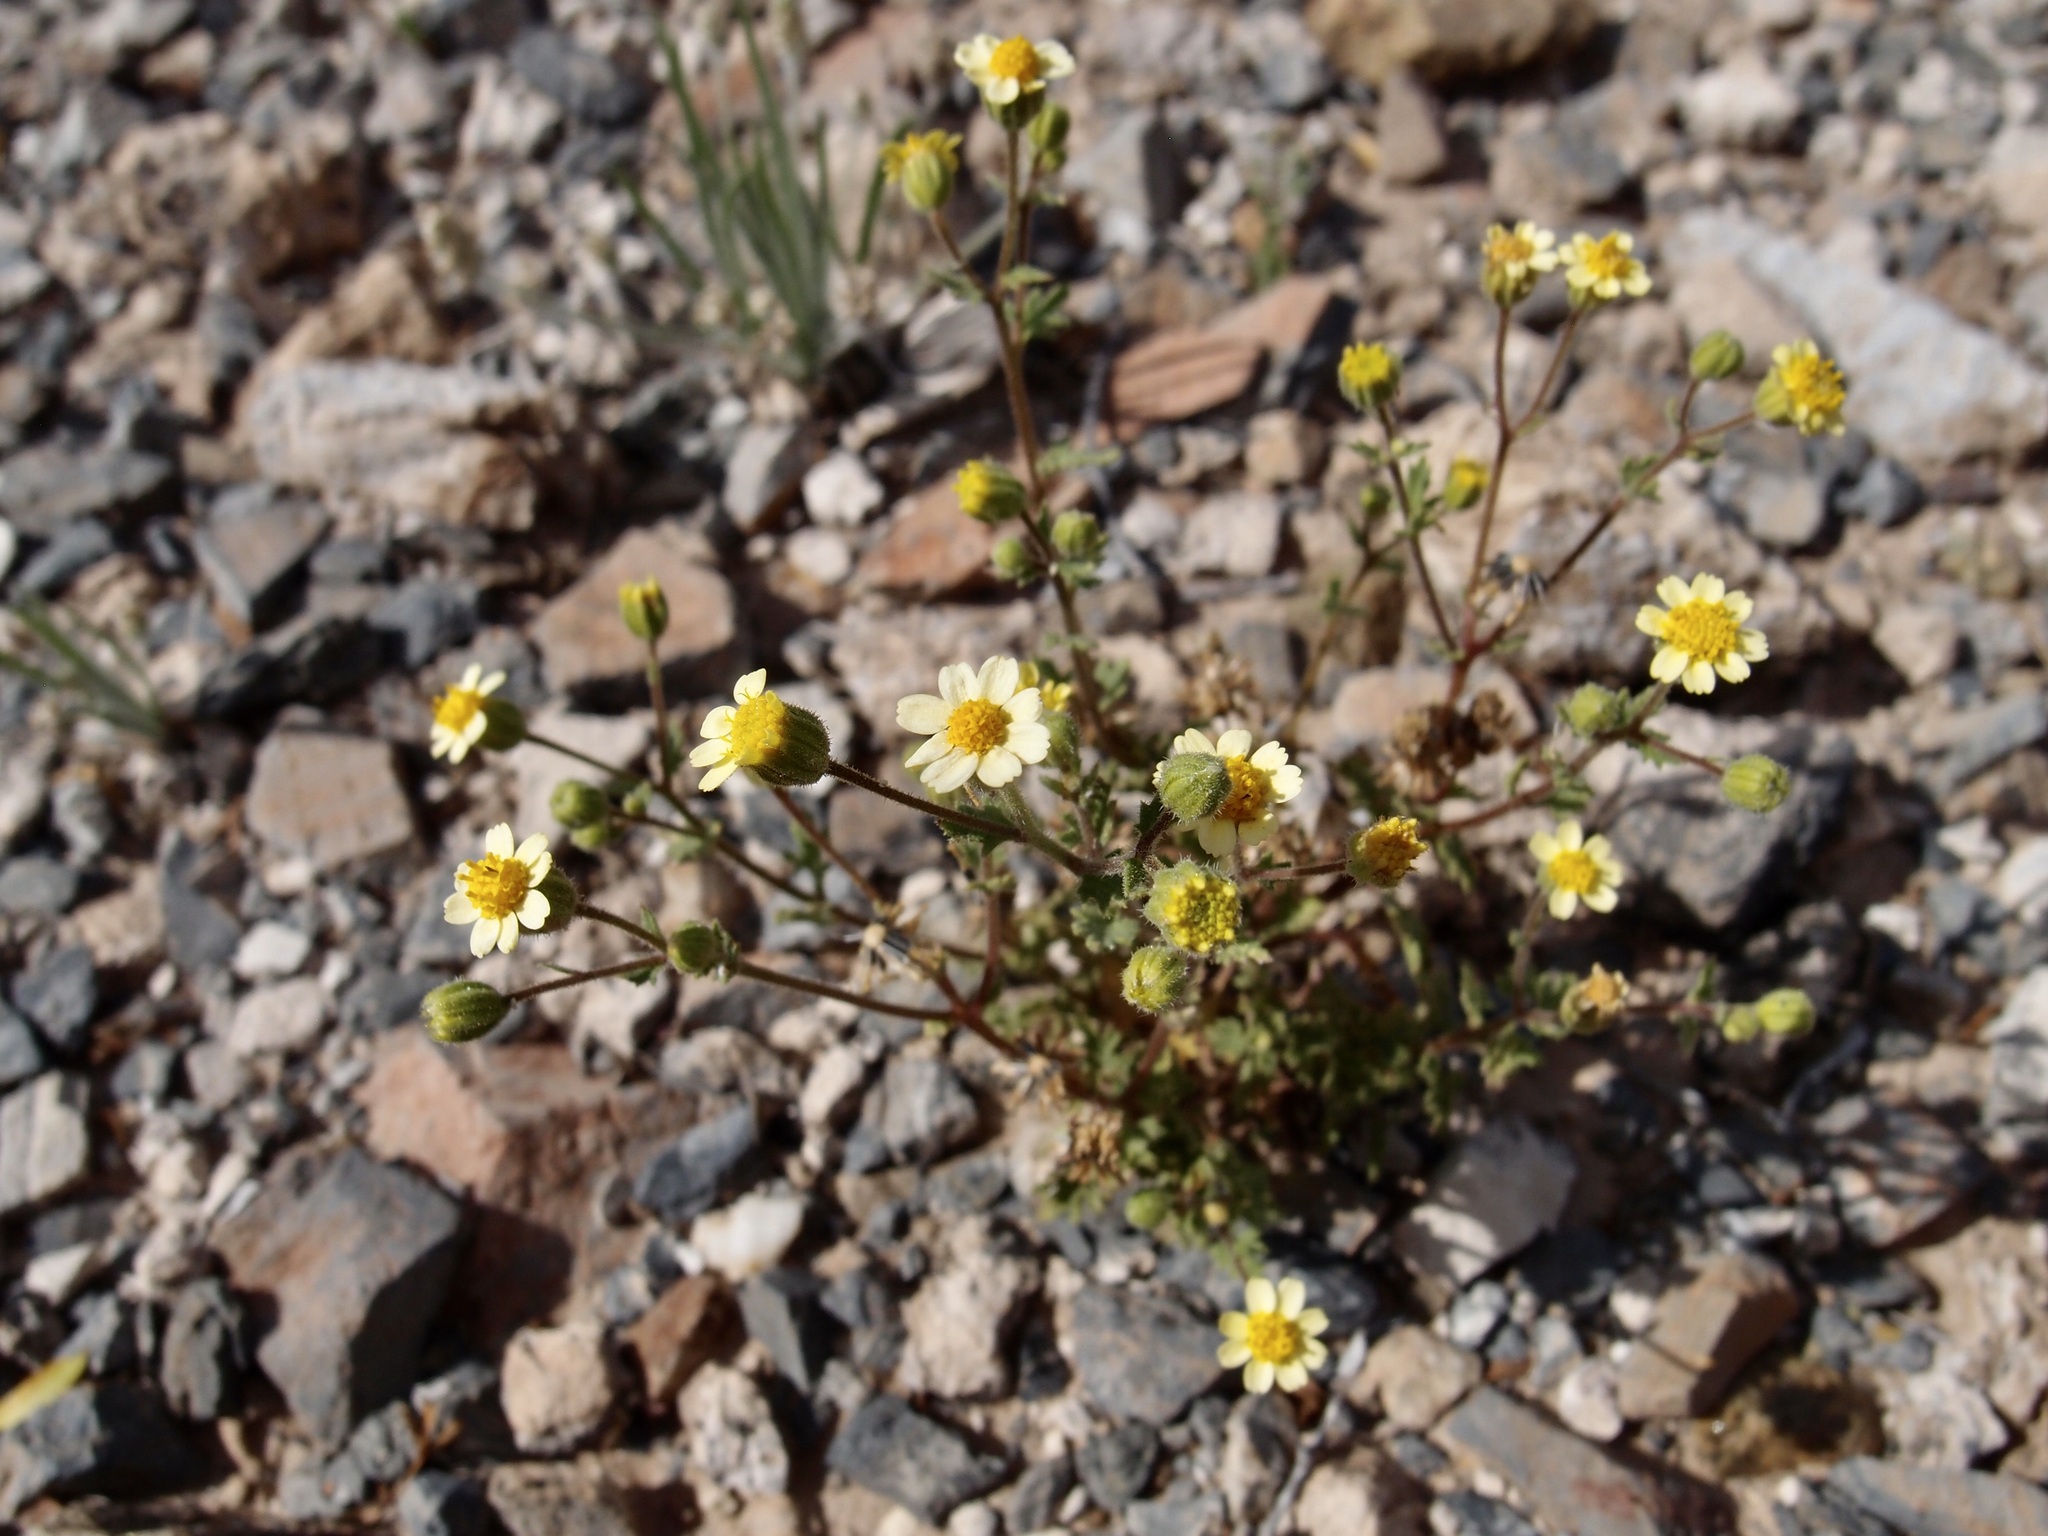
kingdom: Plantae
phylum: Tracheophyta
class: Magnoliopsida
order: Asterales
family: Asteraceae
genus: Laphamia
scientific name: Laphamia emoryi
